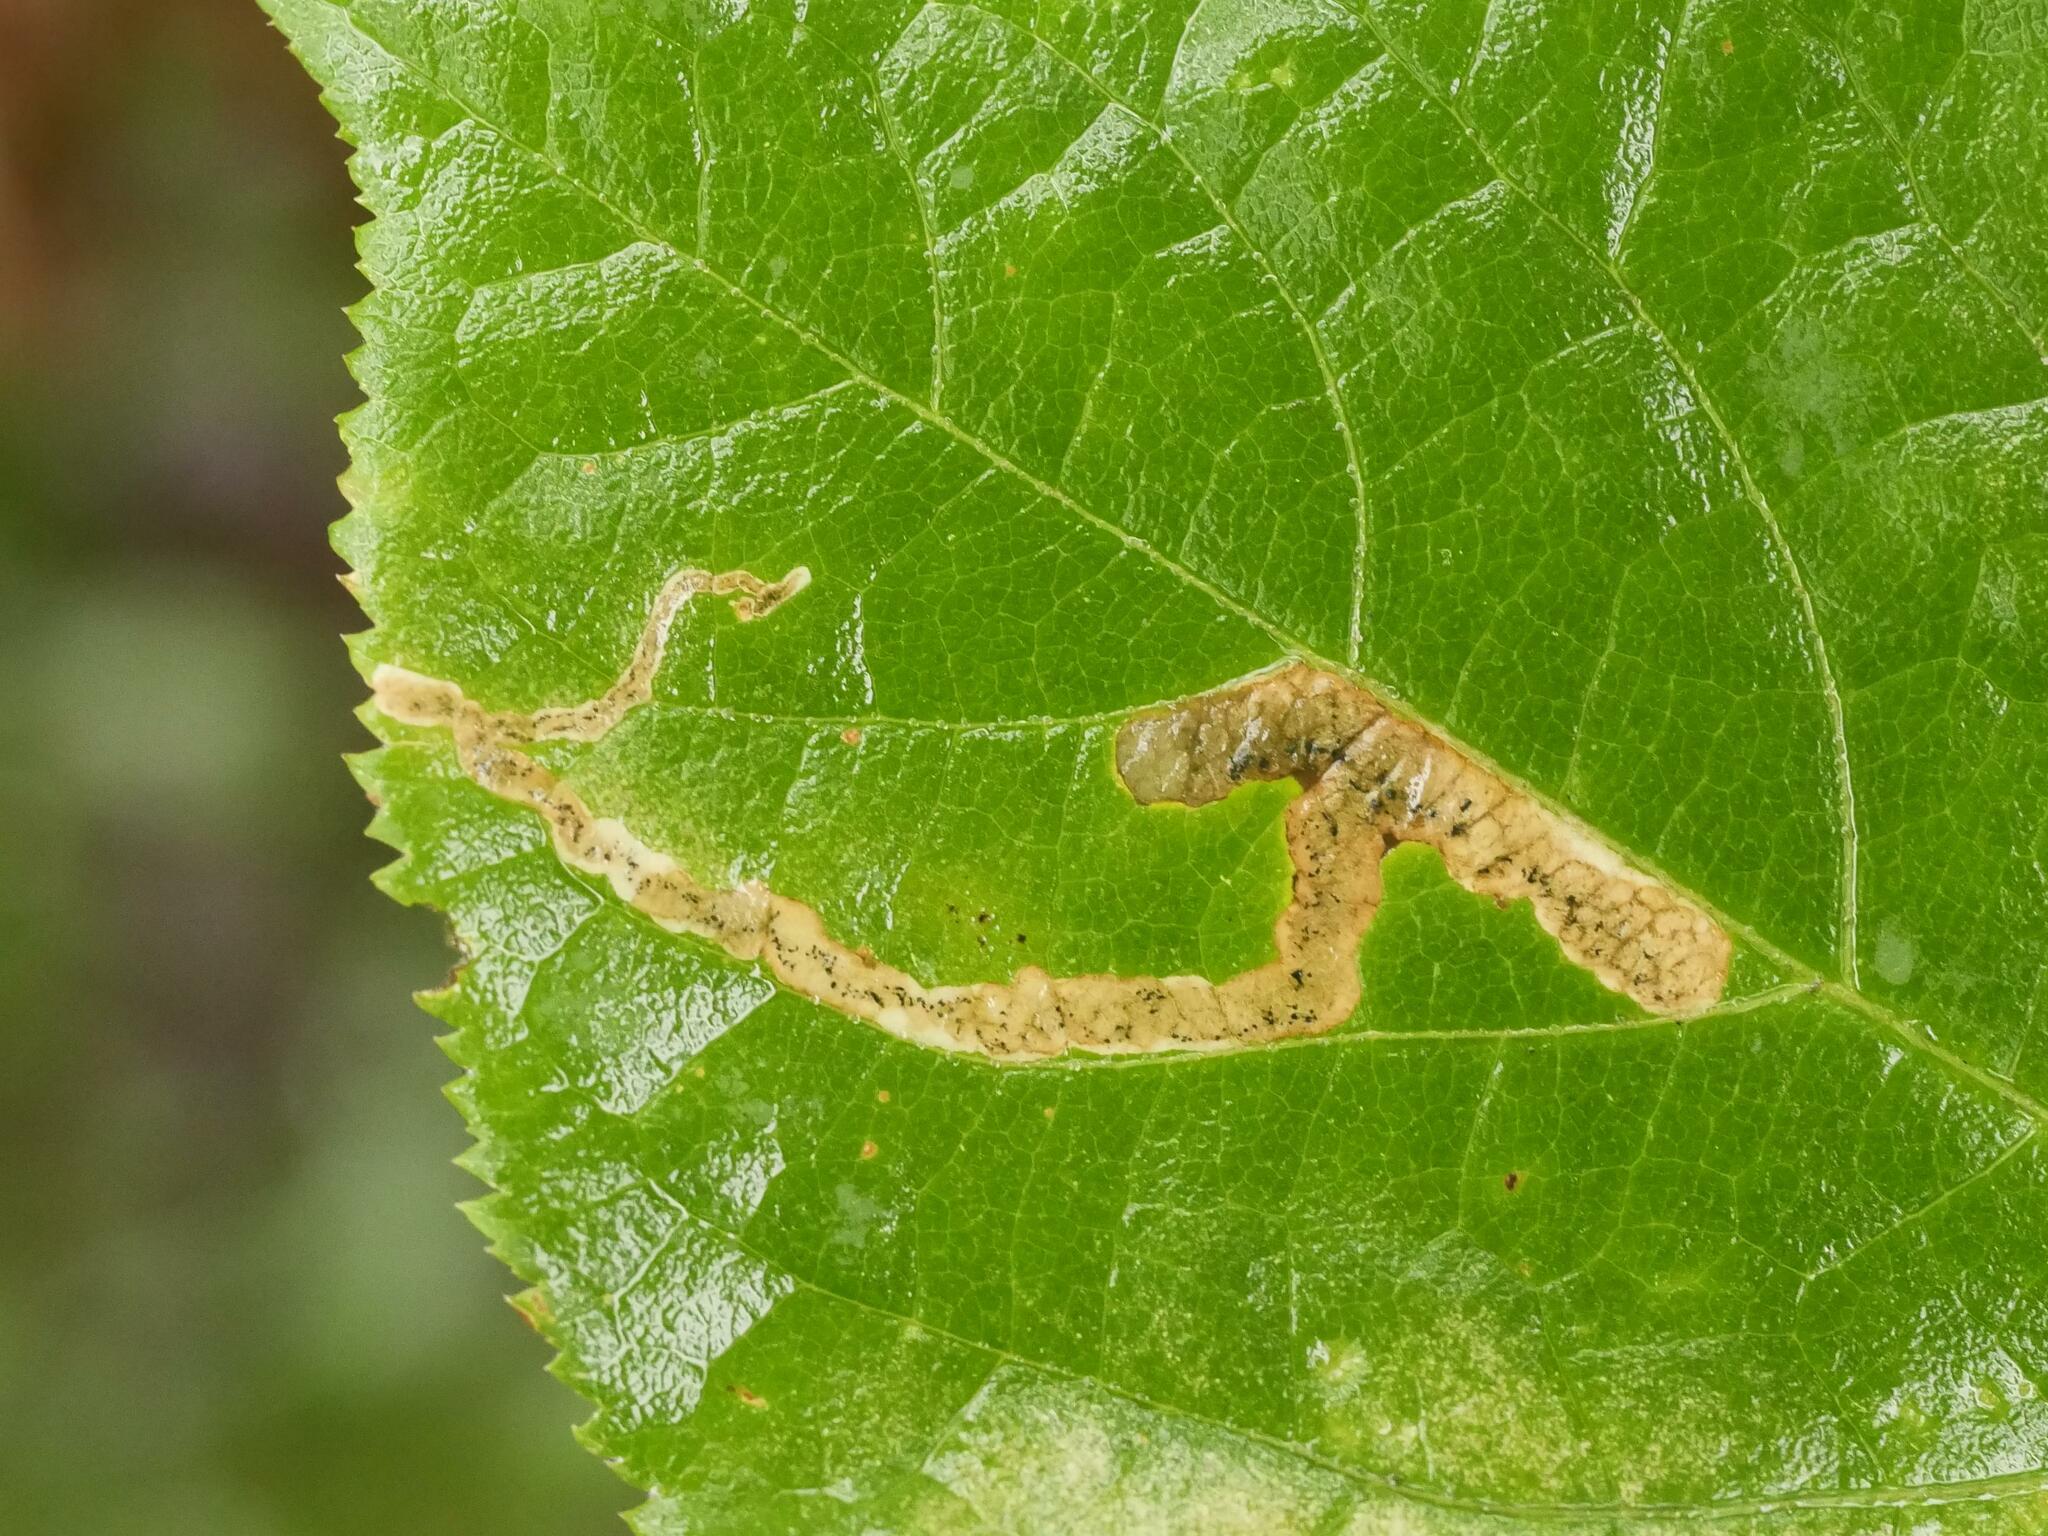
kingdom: Animalia
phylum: Arthropoda
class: Insecta
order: Diptera
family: Agromyzidae
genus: Phytomyza
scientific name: Phytomyza aralivora
